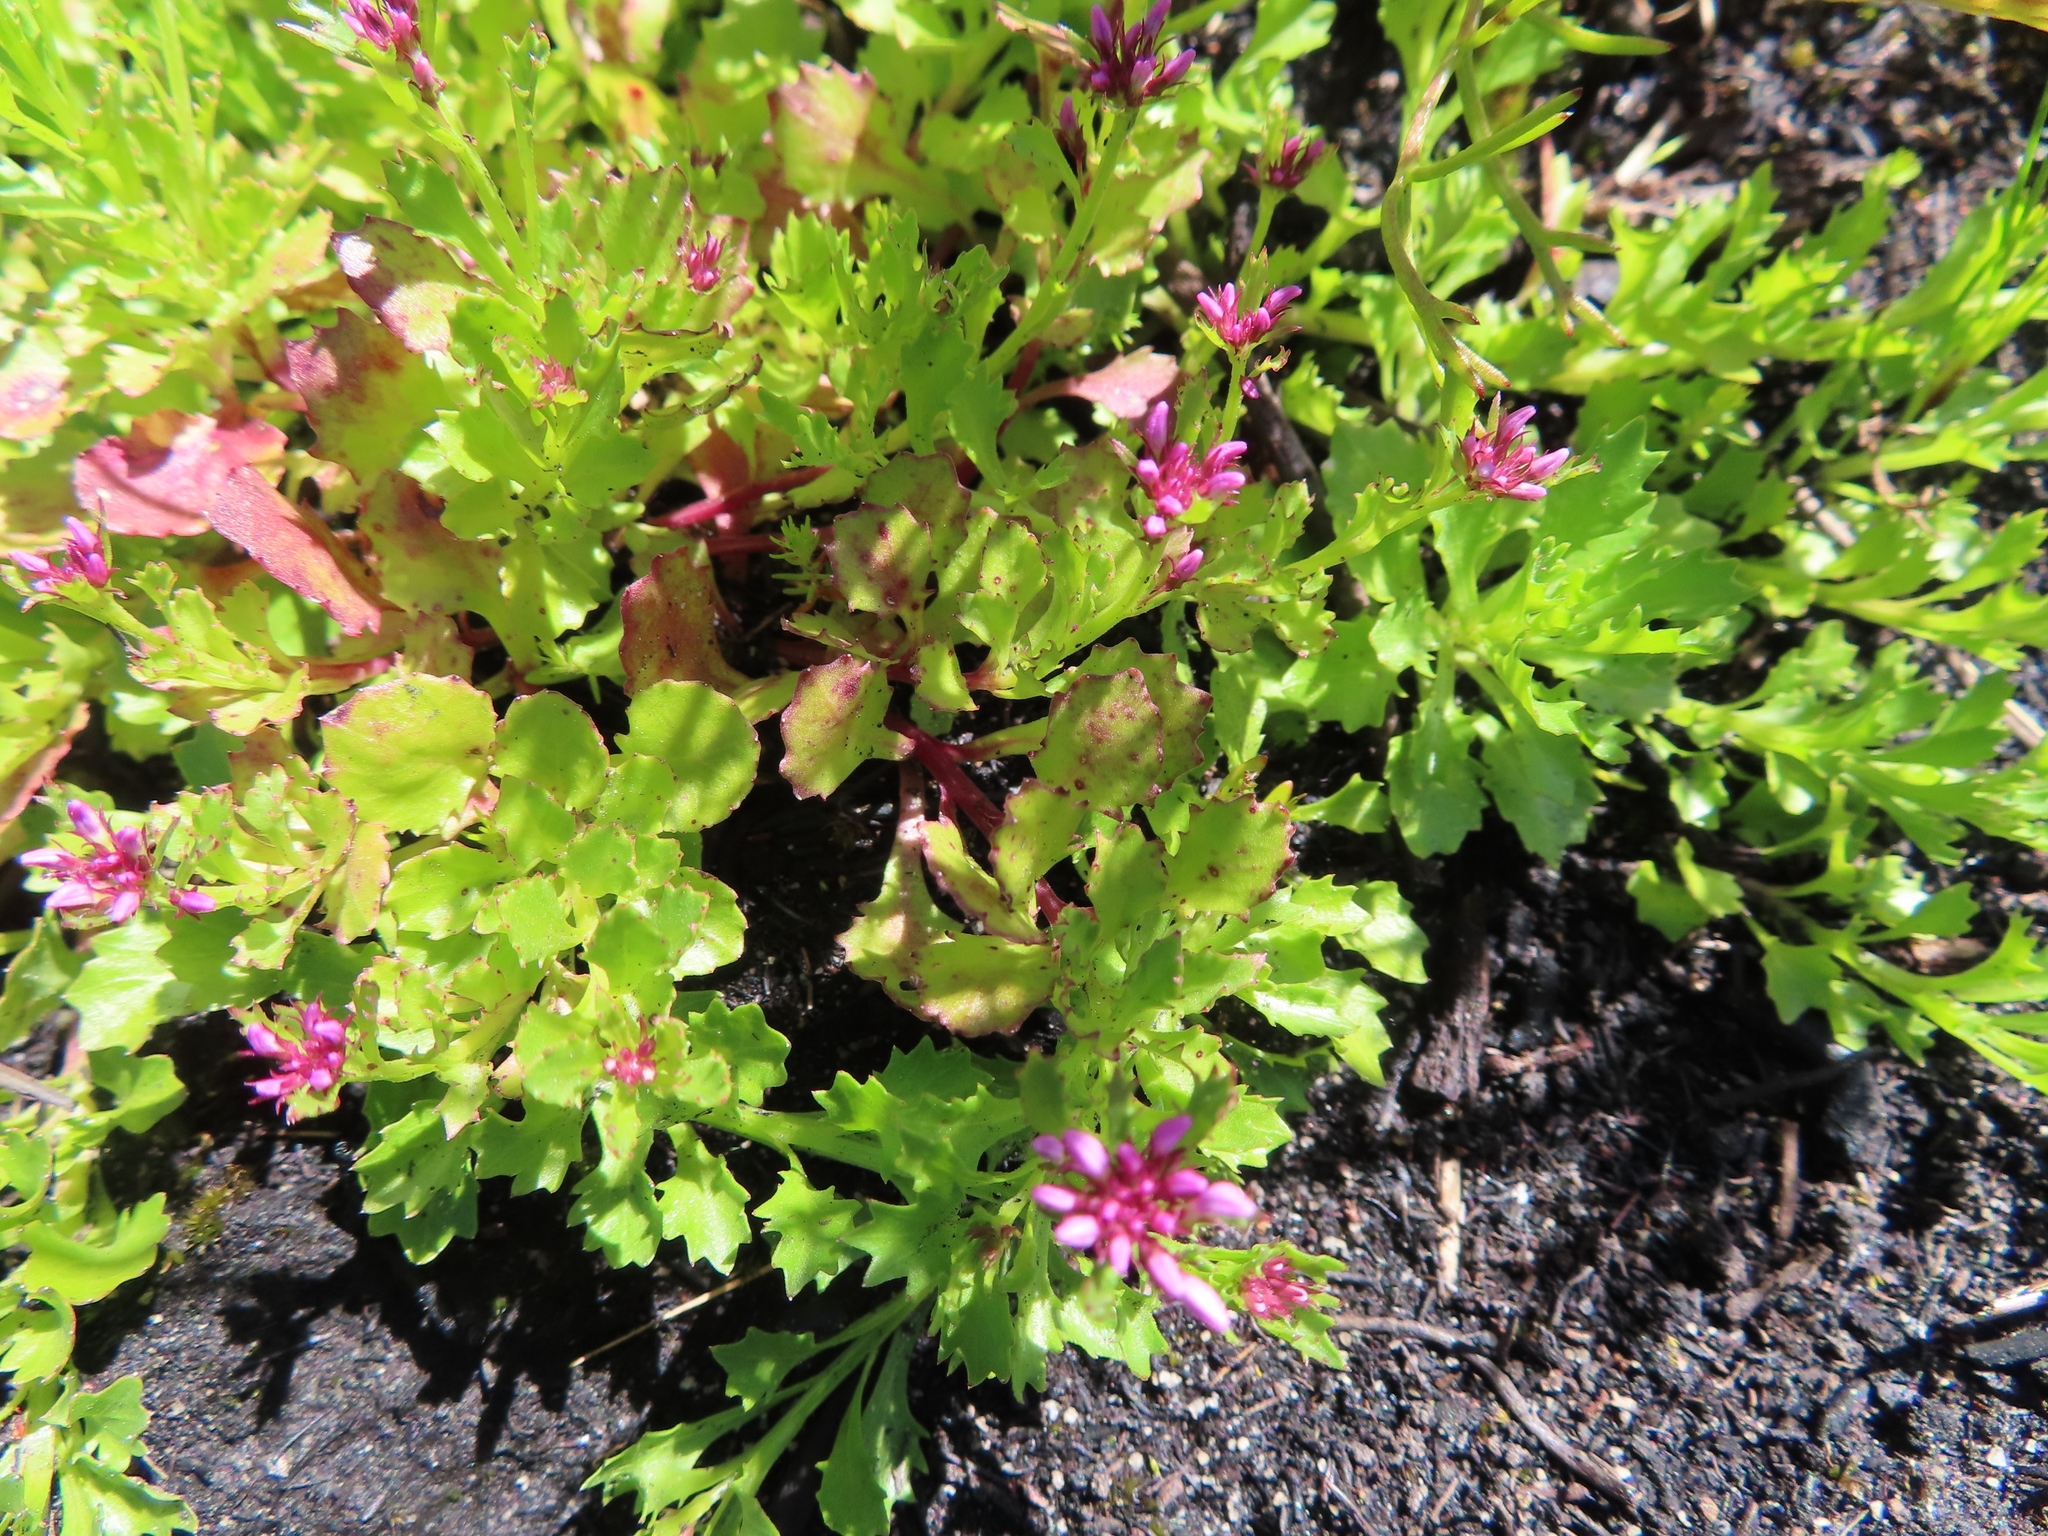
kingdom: Plantae
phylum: Tracheophyta
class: Magnoliopsida
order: Asterales
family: Campanulaceae
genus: Lobelia
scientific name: Lobelia jasionoides
